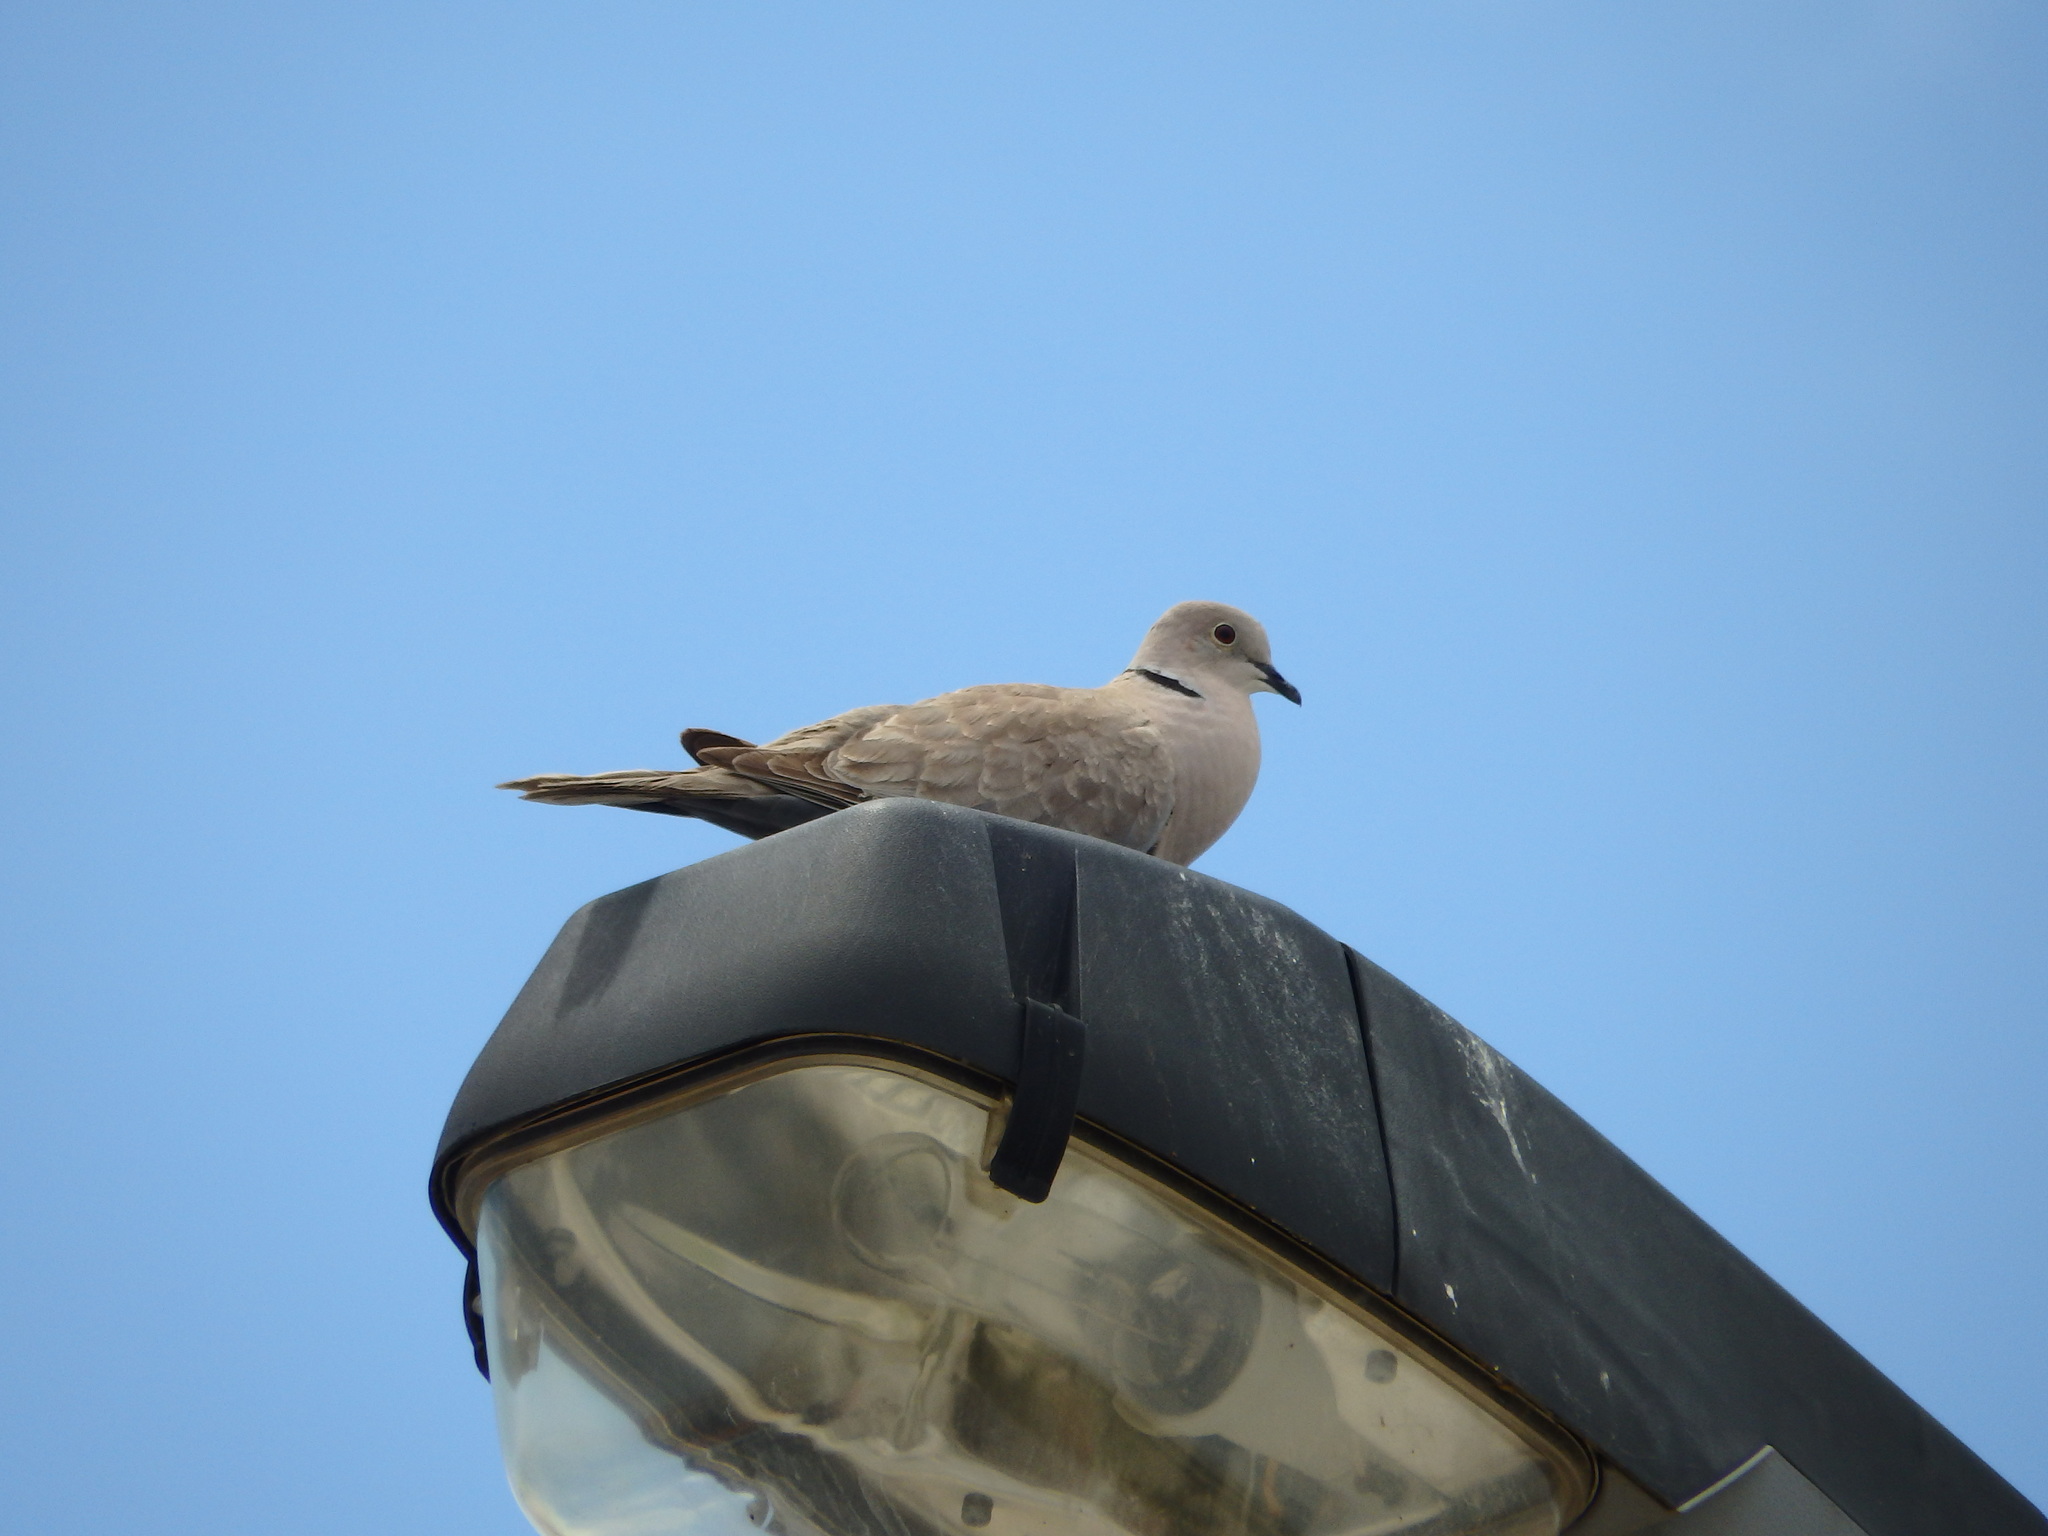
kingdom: Animalia
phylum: Chordata
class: Aves
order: Columbiformes
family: Columbidae
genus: Streptopelia
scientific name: Streptopelia decaocto
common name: Eurasian collared dove
